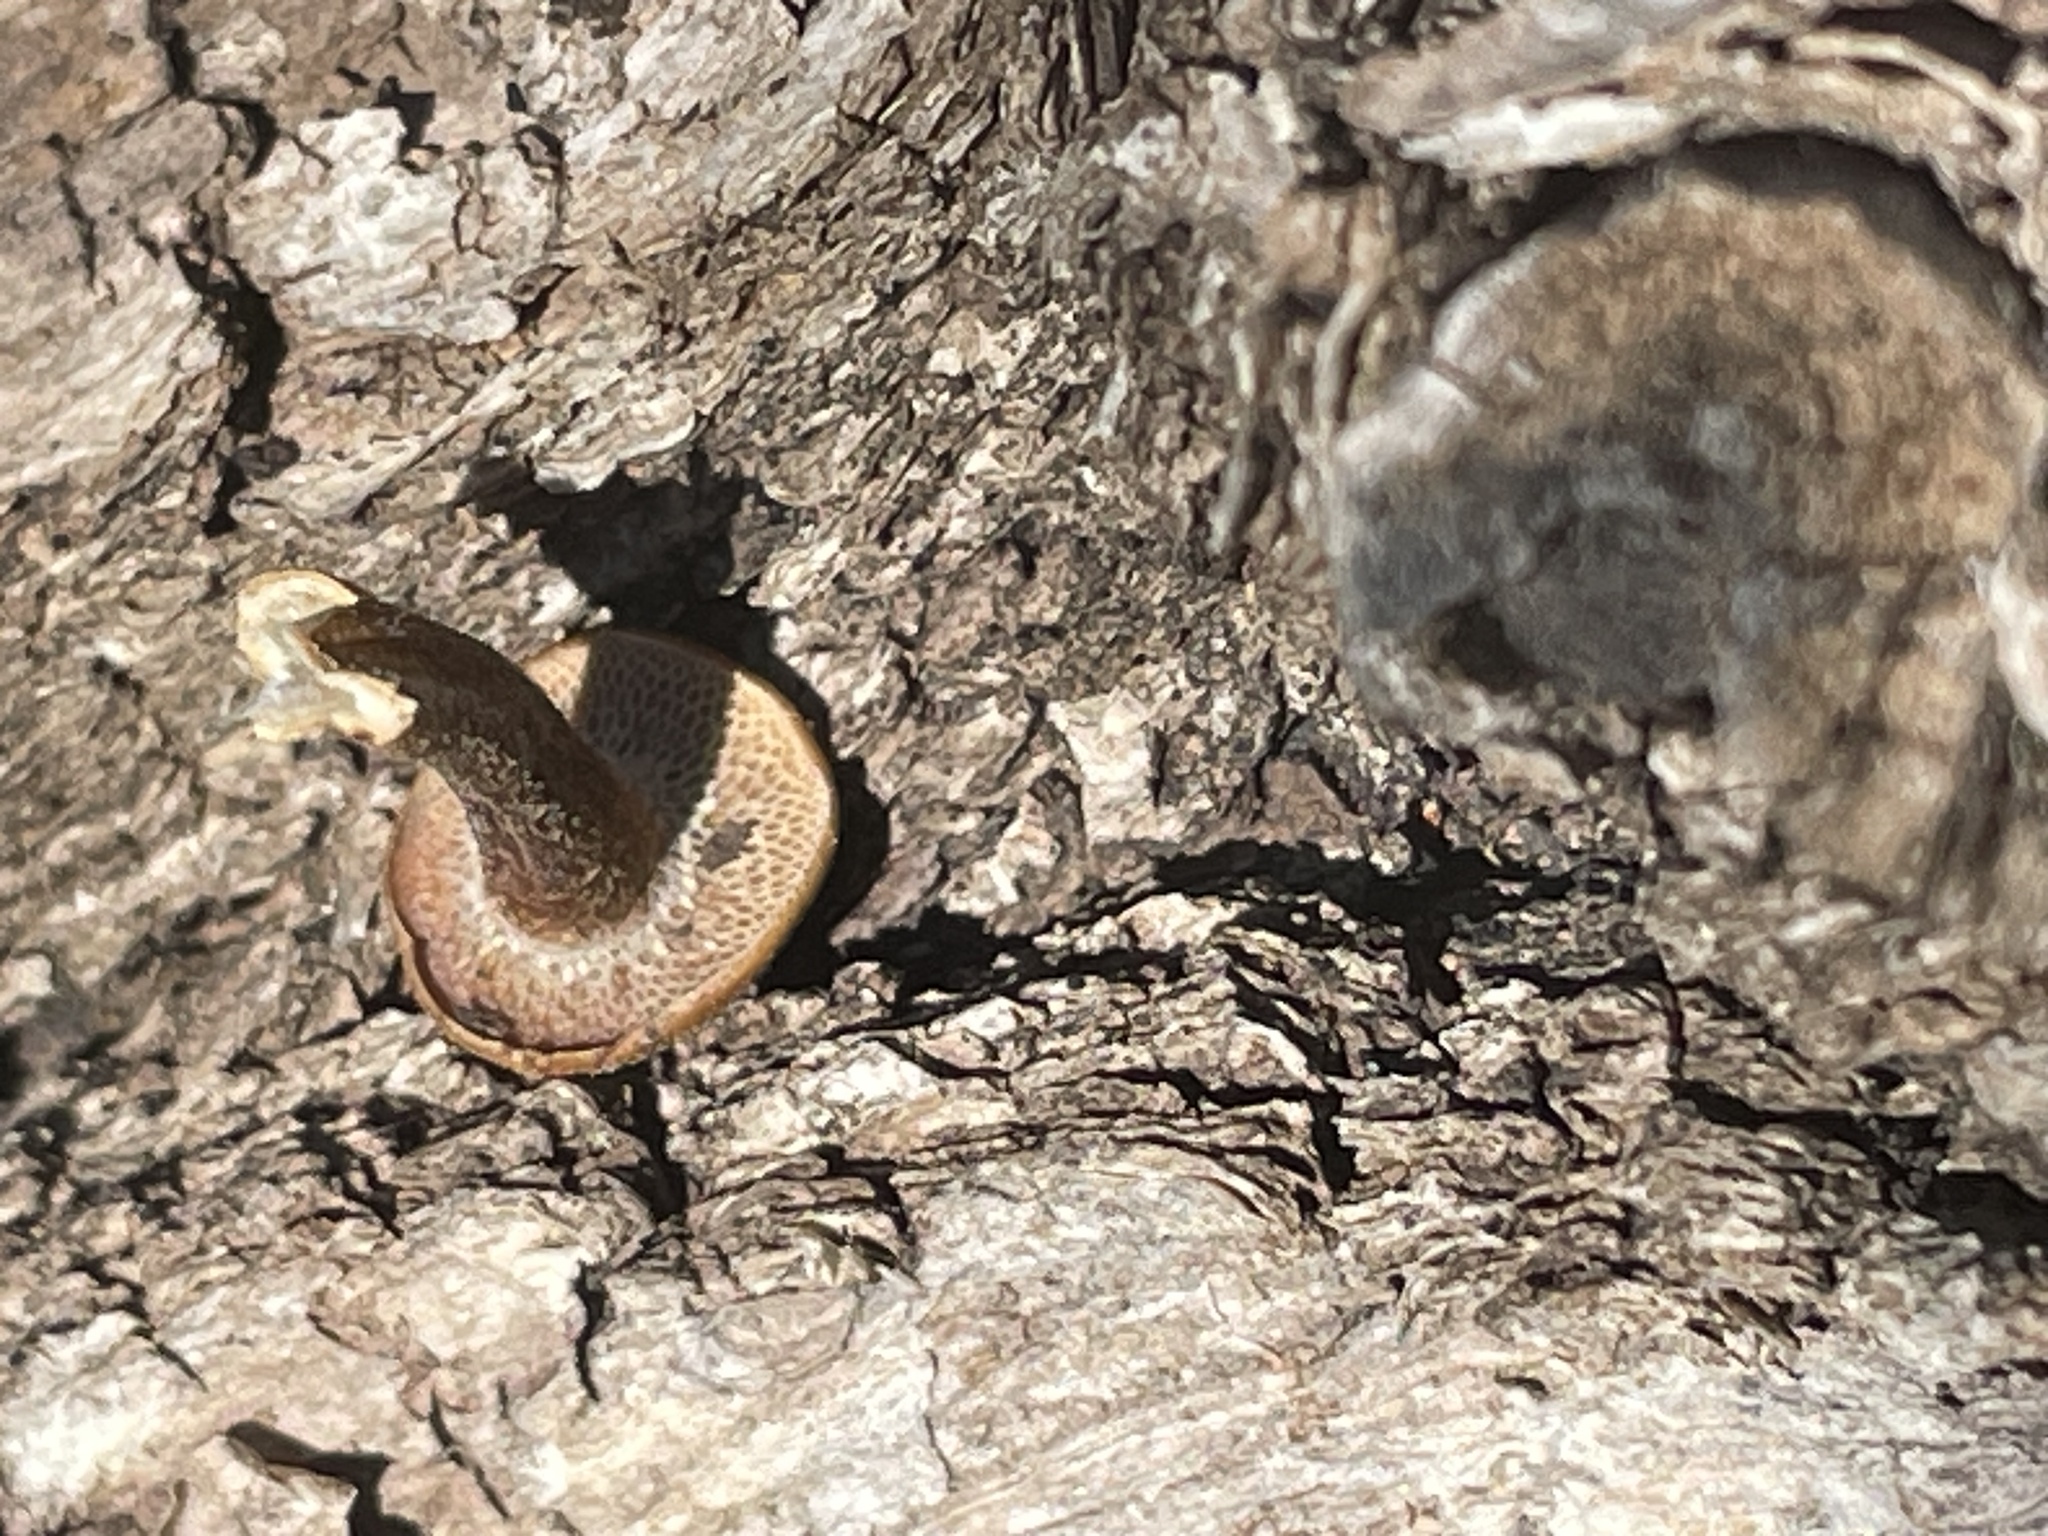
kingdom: Fungi
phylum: Basidiomycota
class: Agaricomycetes
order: Polyporales
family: Polyporaceae
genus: Lentinus
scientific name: Lentinus arcularius
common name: Spring polypore
